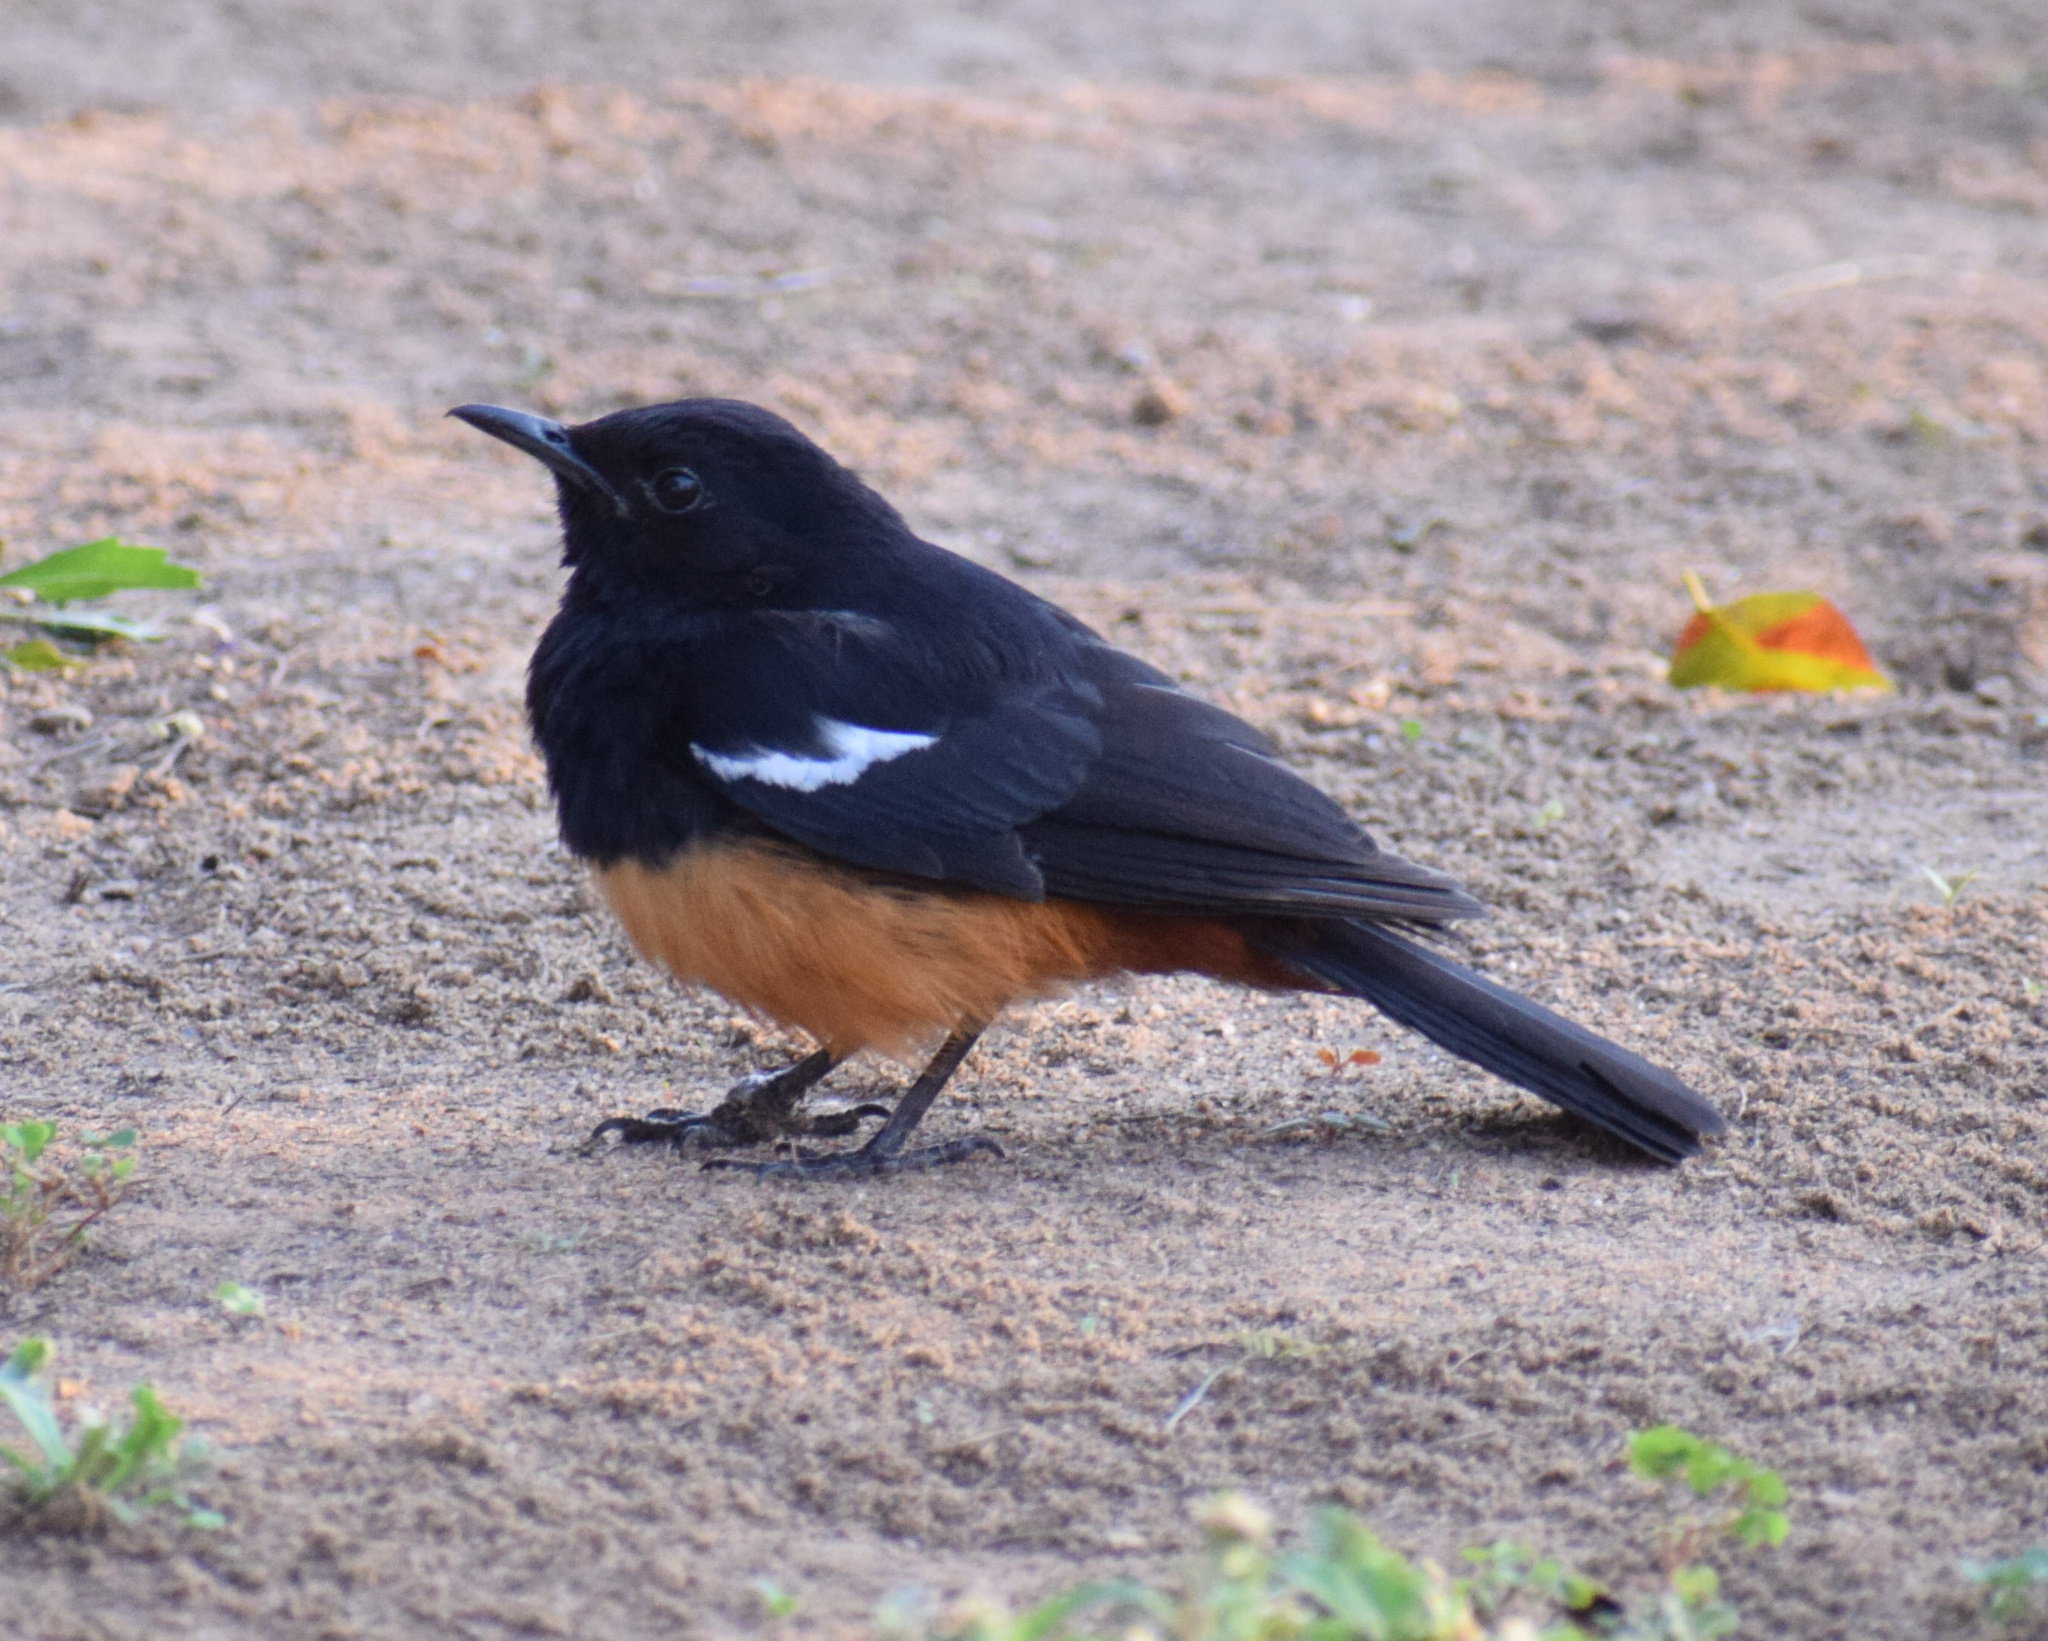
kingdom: Animalia
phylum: Chordata
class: Aves
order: Passeriformes
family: Muscicapidae
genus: Thamnolaea
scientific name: Thamnolaea cinnamomeiventris
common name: Mocking cliff chat
